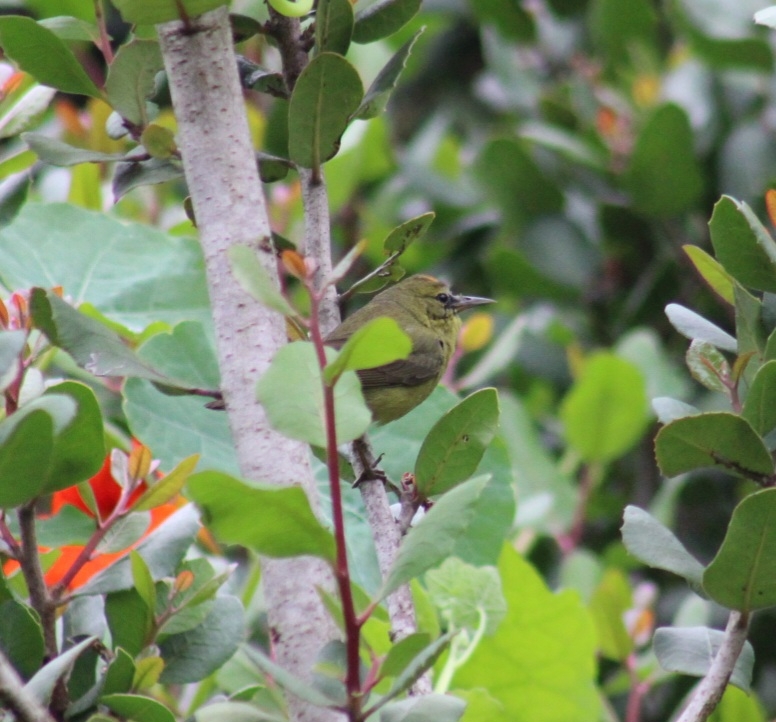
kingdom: Animalia
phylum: Chordata
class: Aves
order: Passeriformes
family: Parulidae
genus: Leiothlypis
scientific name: Leiothlypis celata
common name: Orange-crowned warbler
